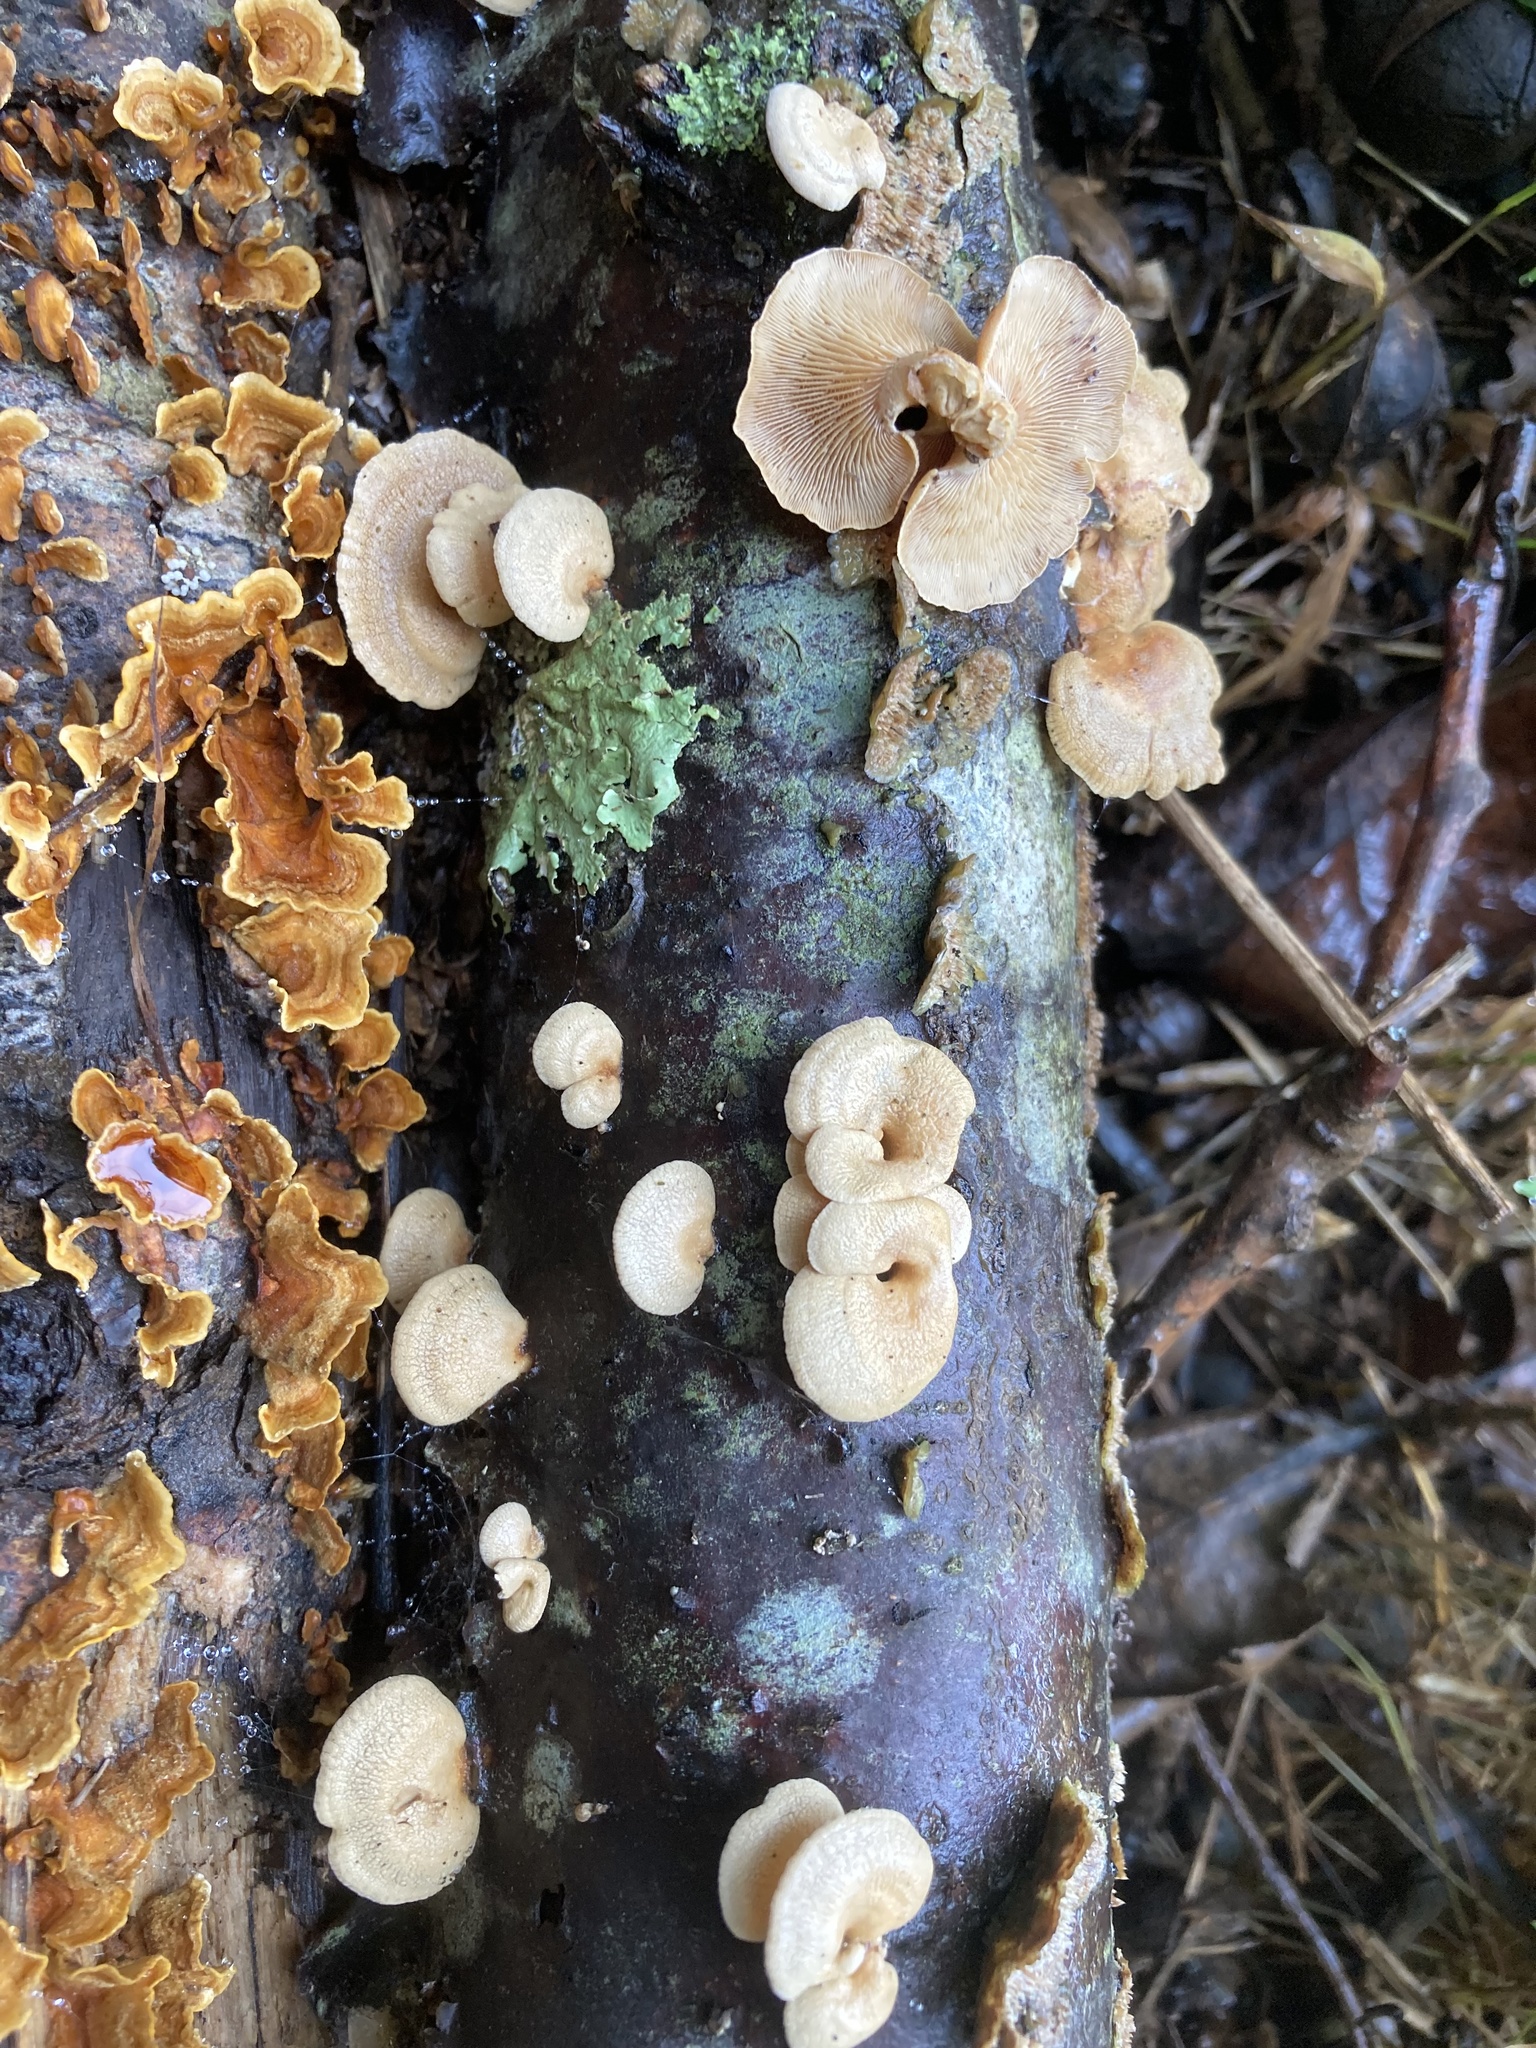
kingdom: Fungi
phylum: Basidiomycota
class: Agaricomycetes
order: Agaricales
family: Mycenaceae
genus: Panellus
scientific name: Panellus stipticus
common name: Bitter oysterling
